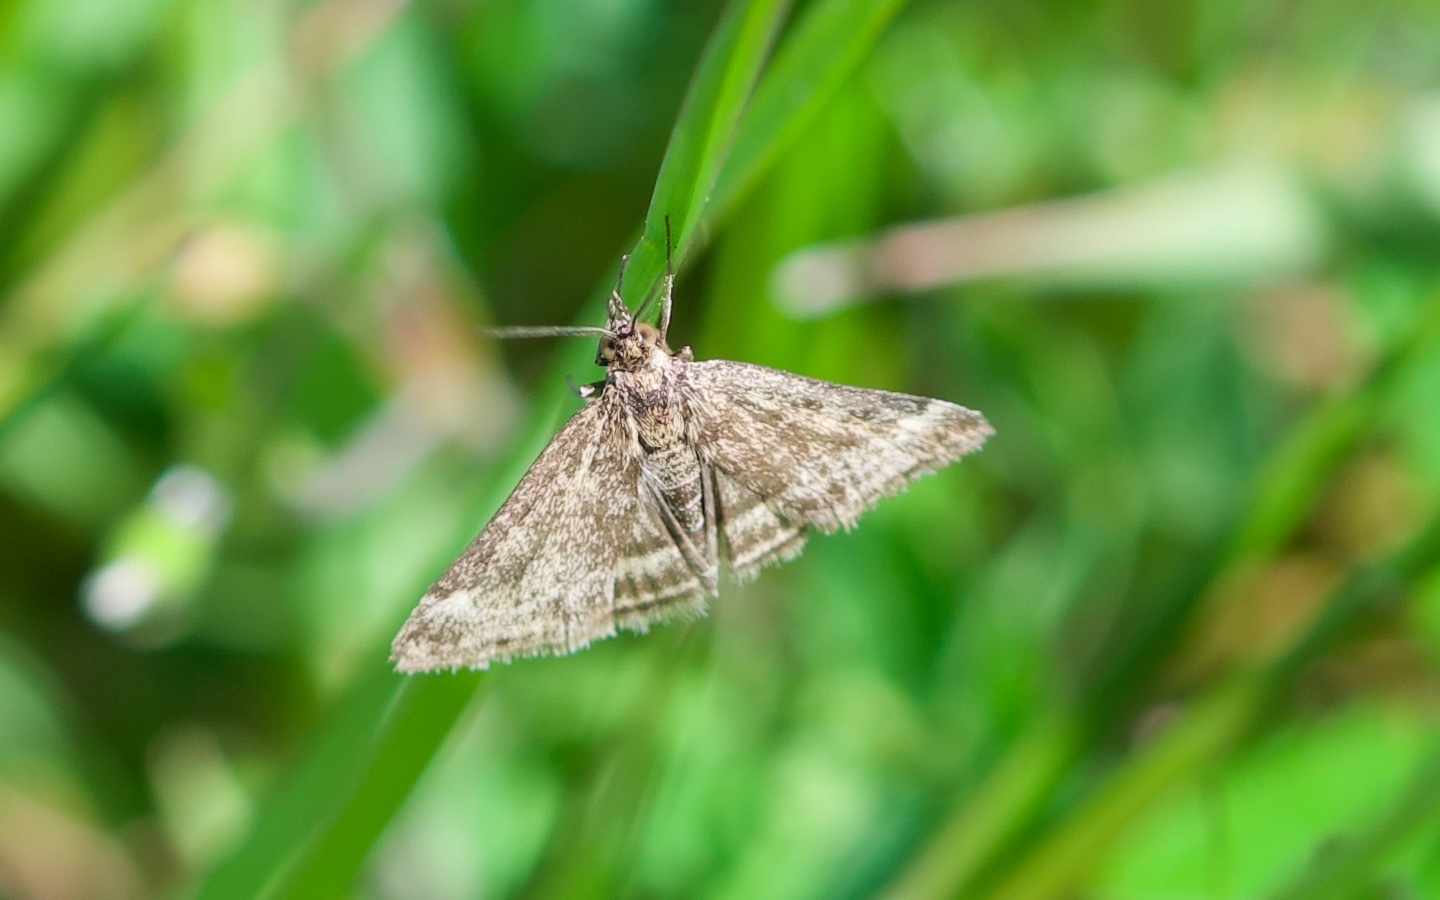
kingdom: Animalia
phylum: Arthropoda
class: Insecta
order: Lepidoptera
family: Crambidae
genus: Pyrausta
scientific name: Pyrausta despicata
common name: Straw-barred pearl
